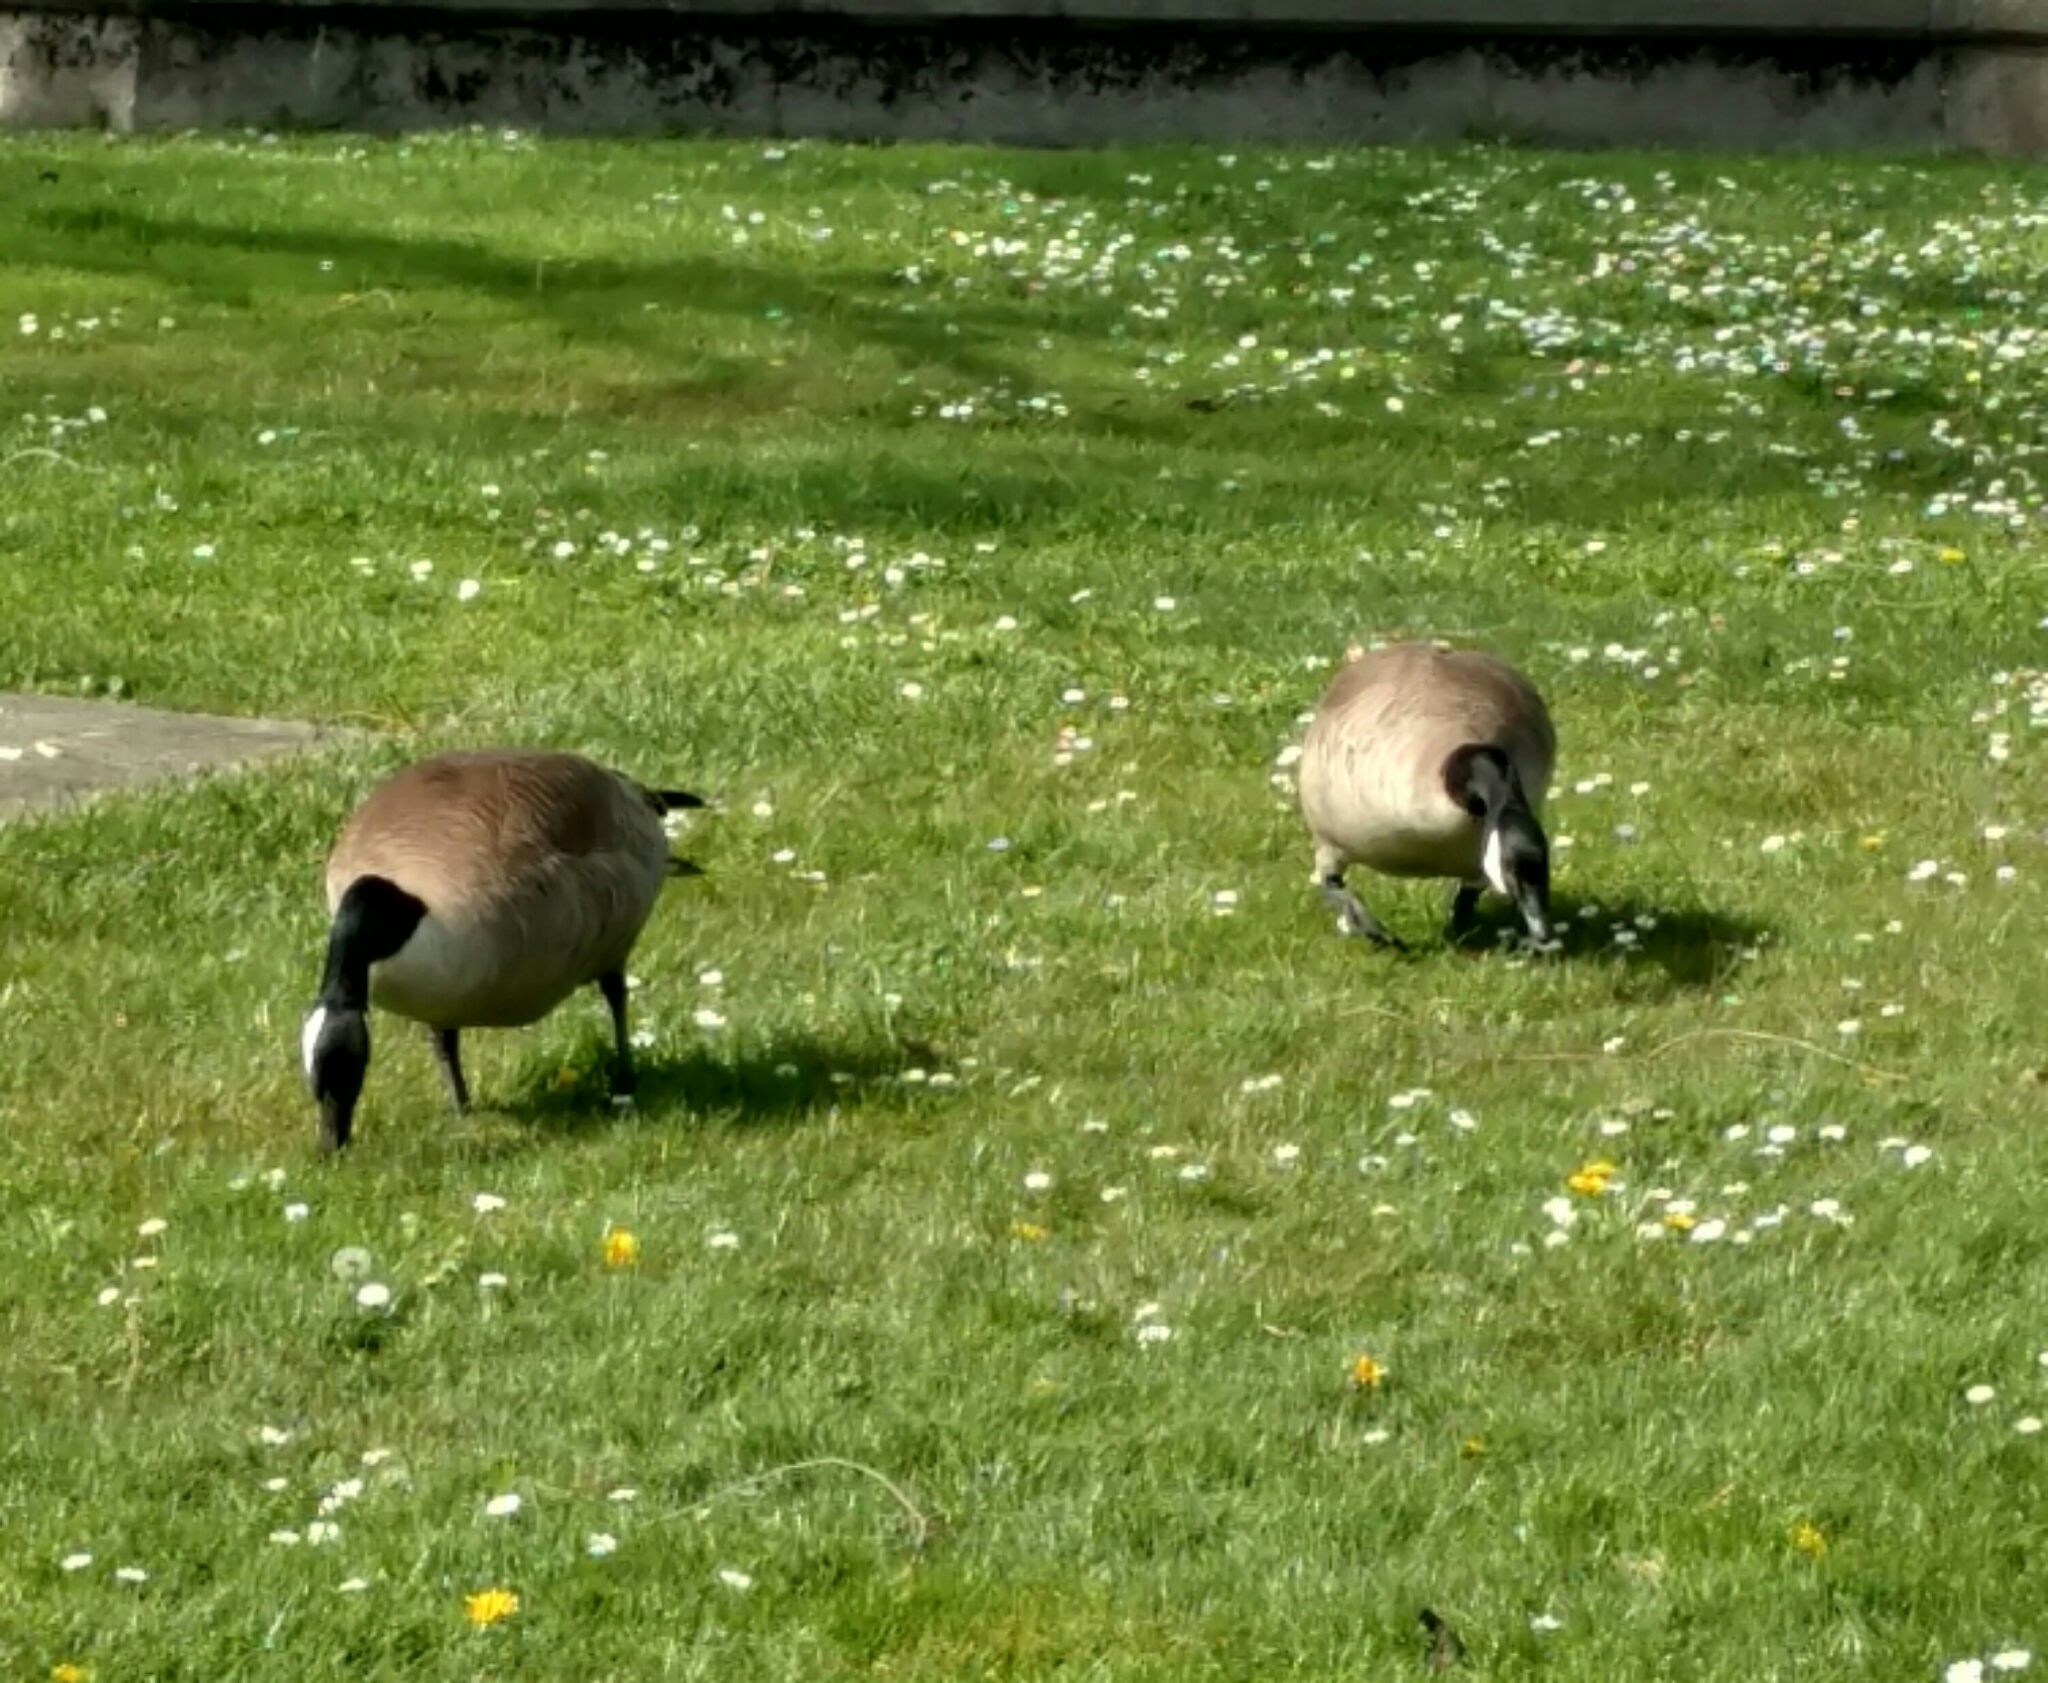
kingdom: Animalia
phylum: Chordata
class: Aves
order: Anseriformes
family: Anatidae
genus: Branta
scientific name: Branta canadensis
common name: Canada goose
